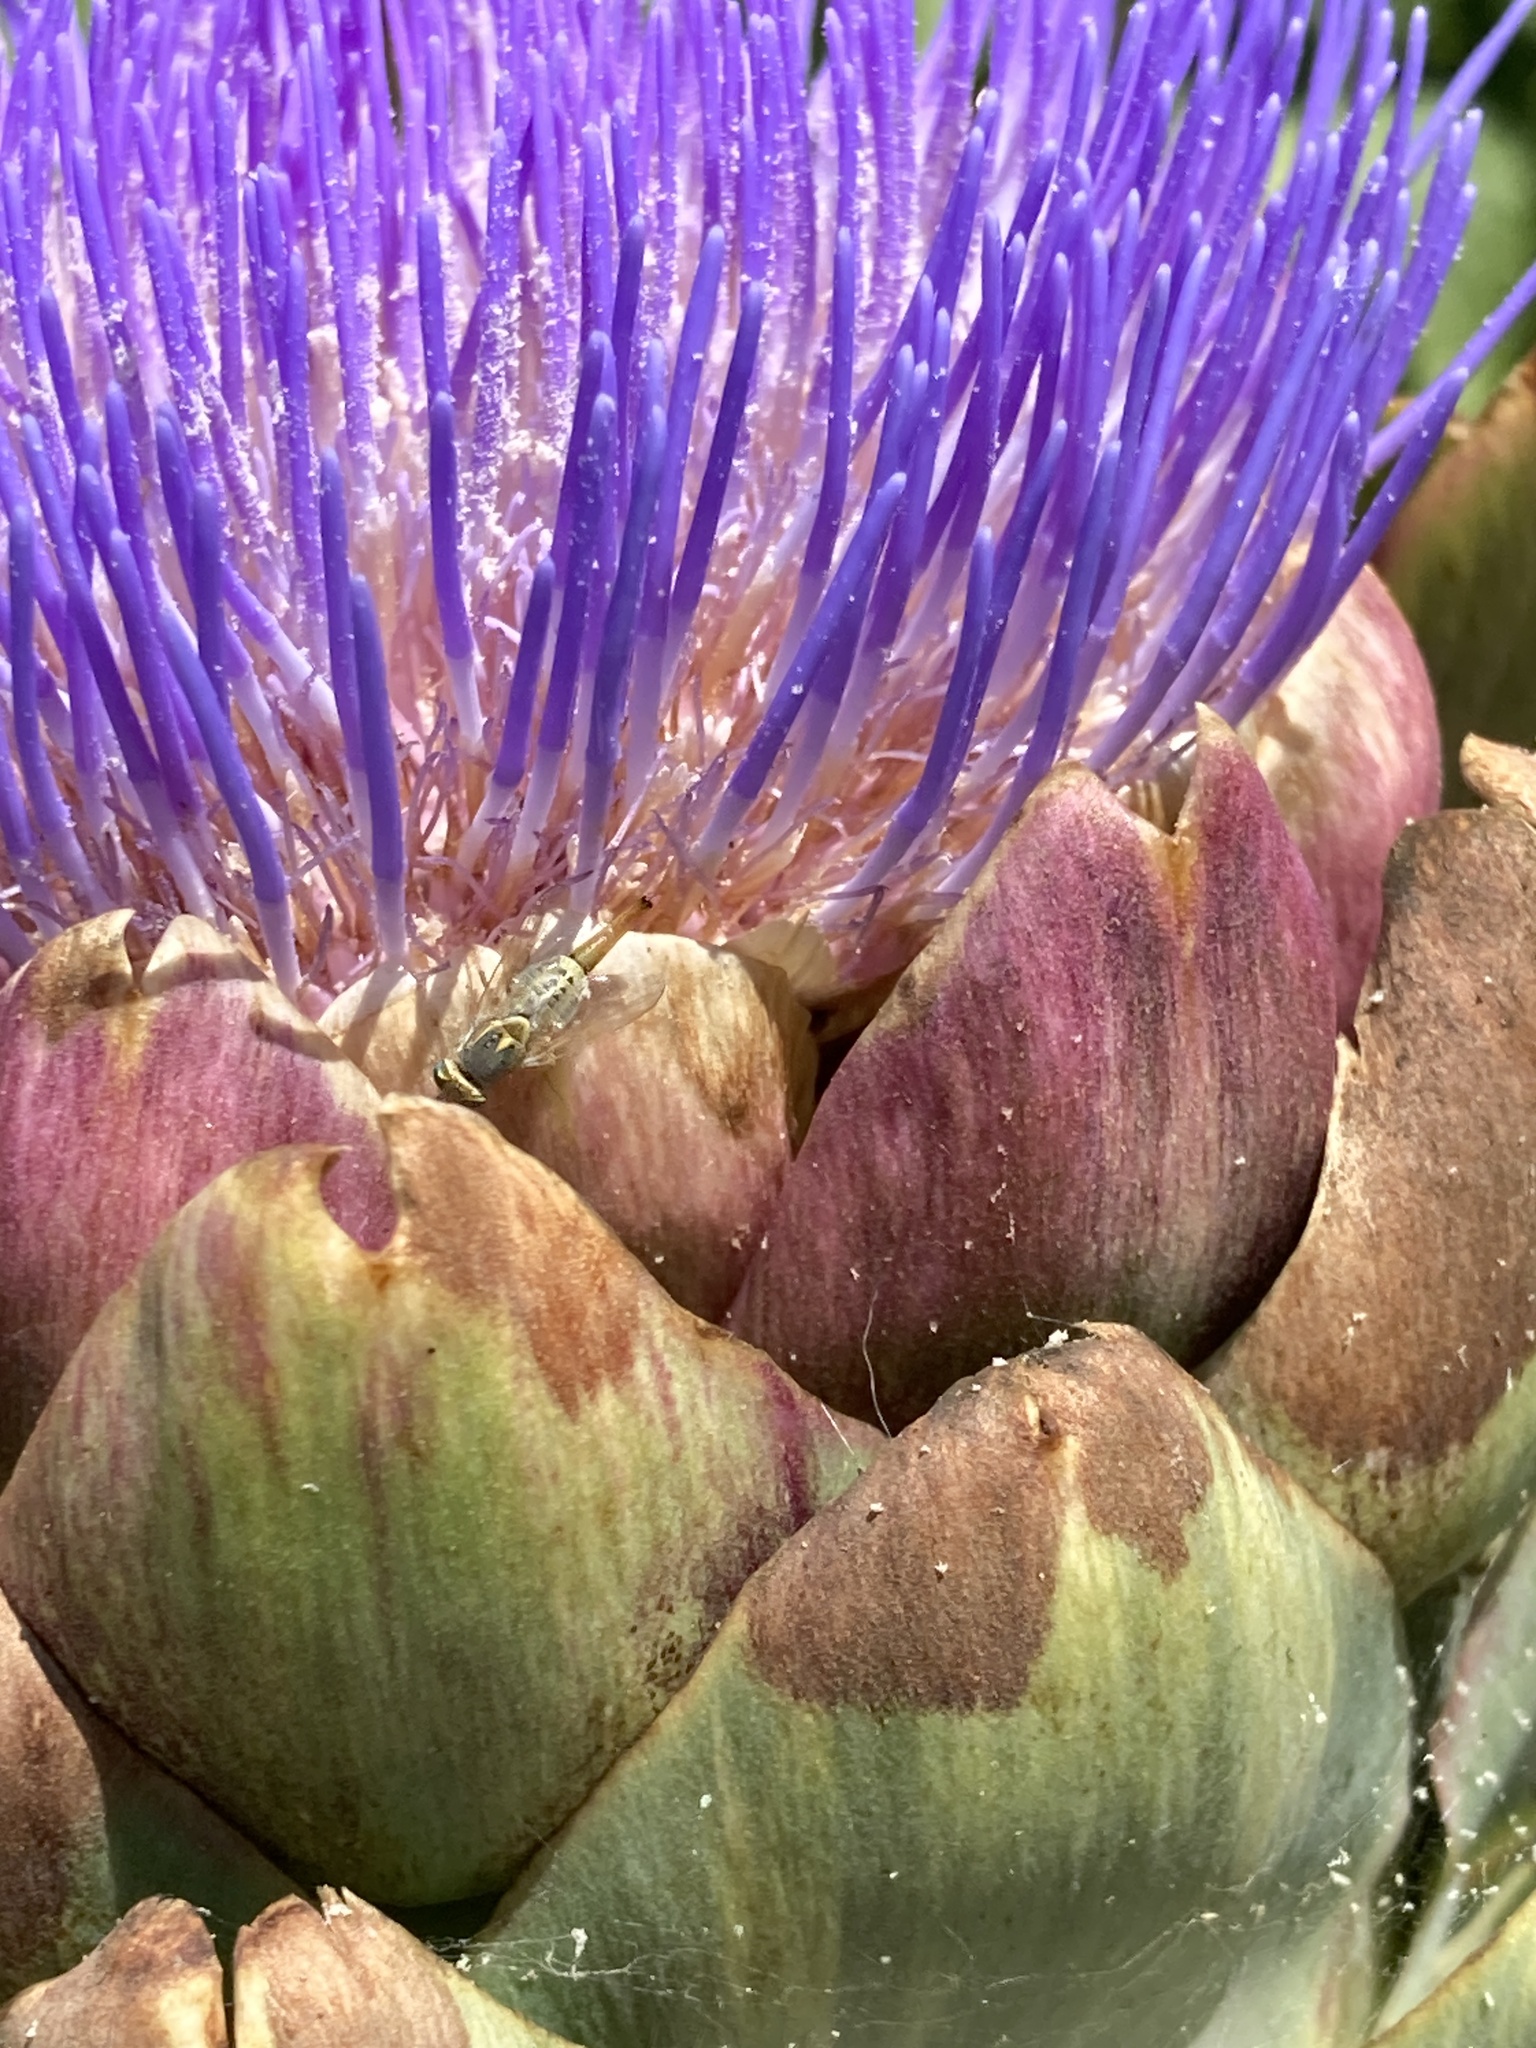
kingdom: Animalia
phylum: Arthropoda
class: Insecta
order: Diptera
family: Tephritidae
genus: Terellia
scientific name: Terellia fuscicornis
